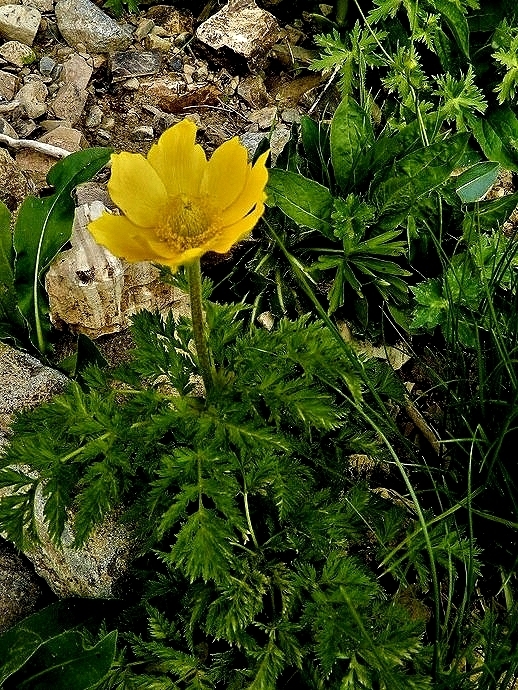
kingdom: Plantae
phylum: Tracheophyta
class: Magnoliopsida
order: Ranunculales
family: Ranunculaceae
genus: Pulsatilla
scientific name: Pulsatilla aurea
